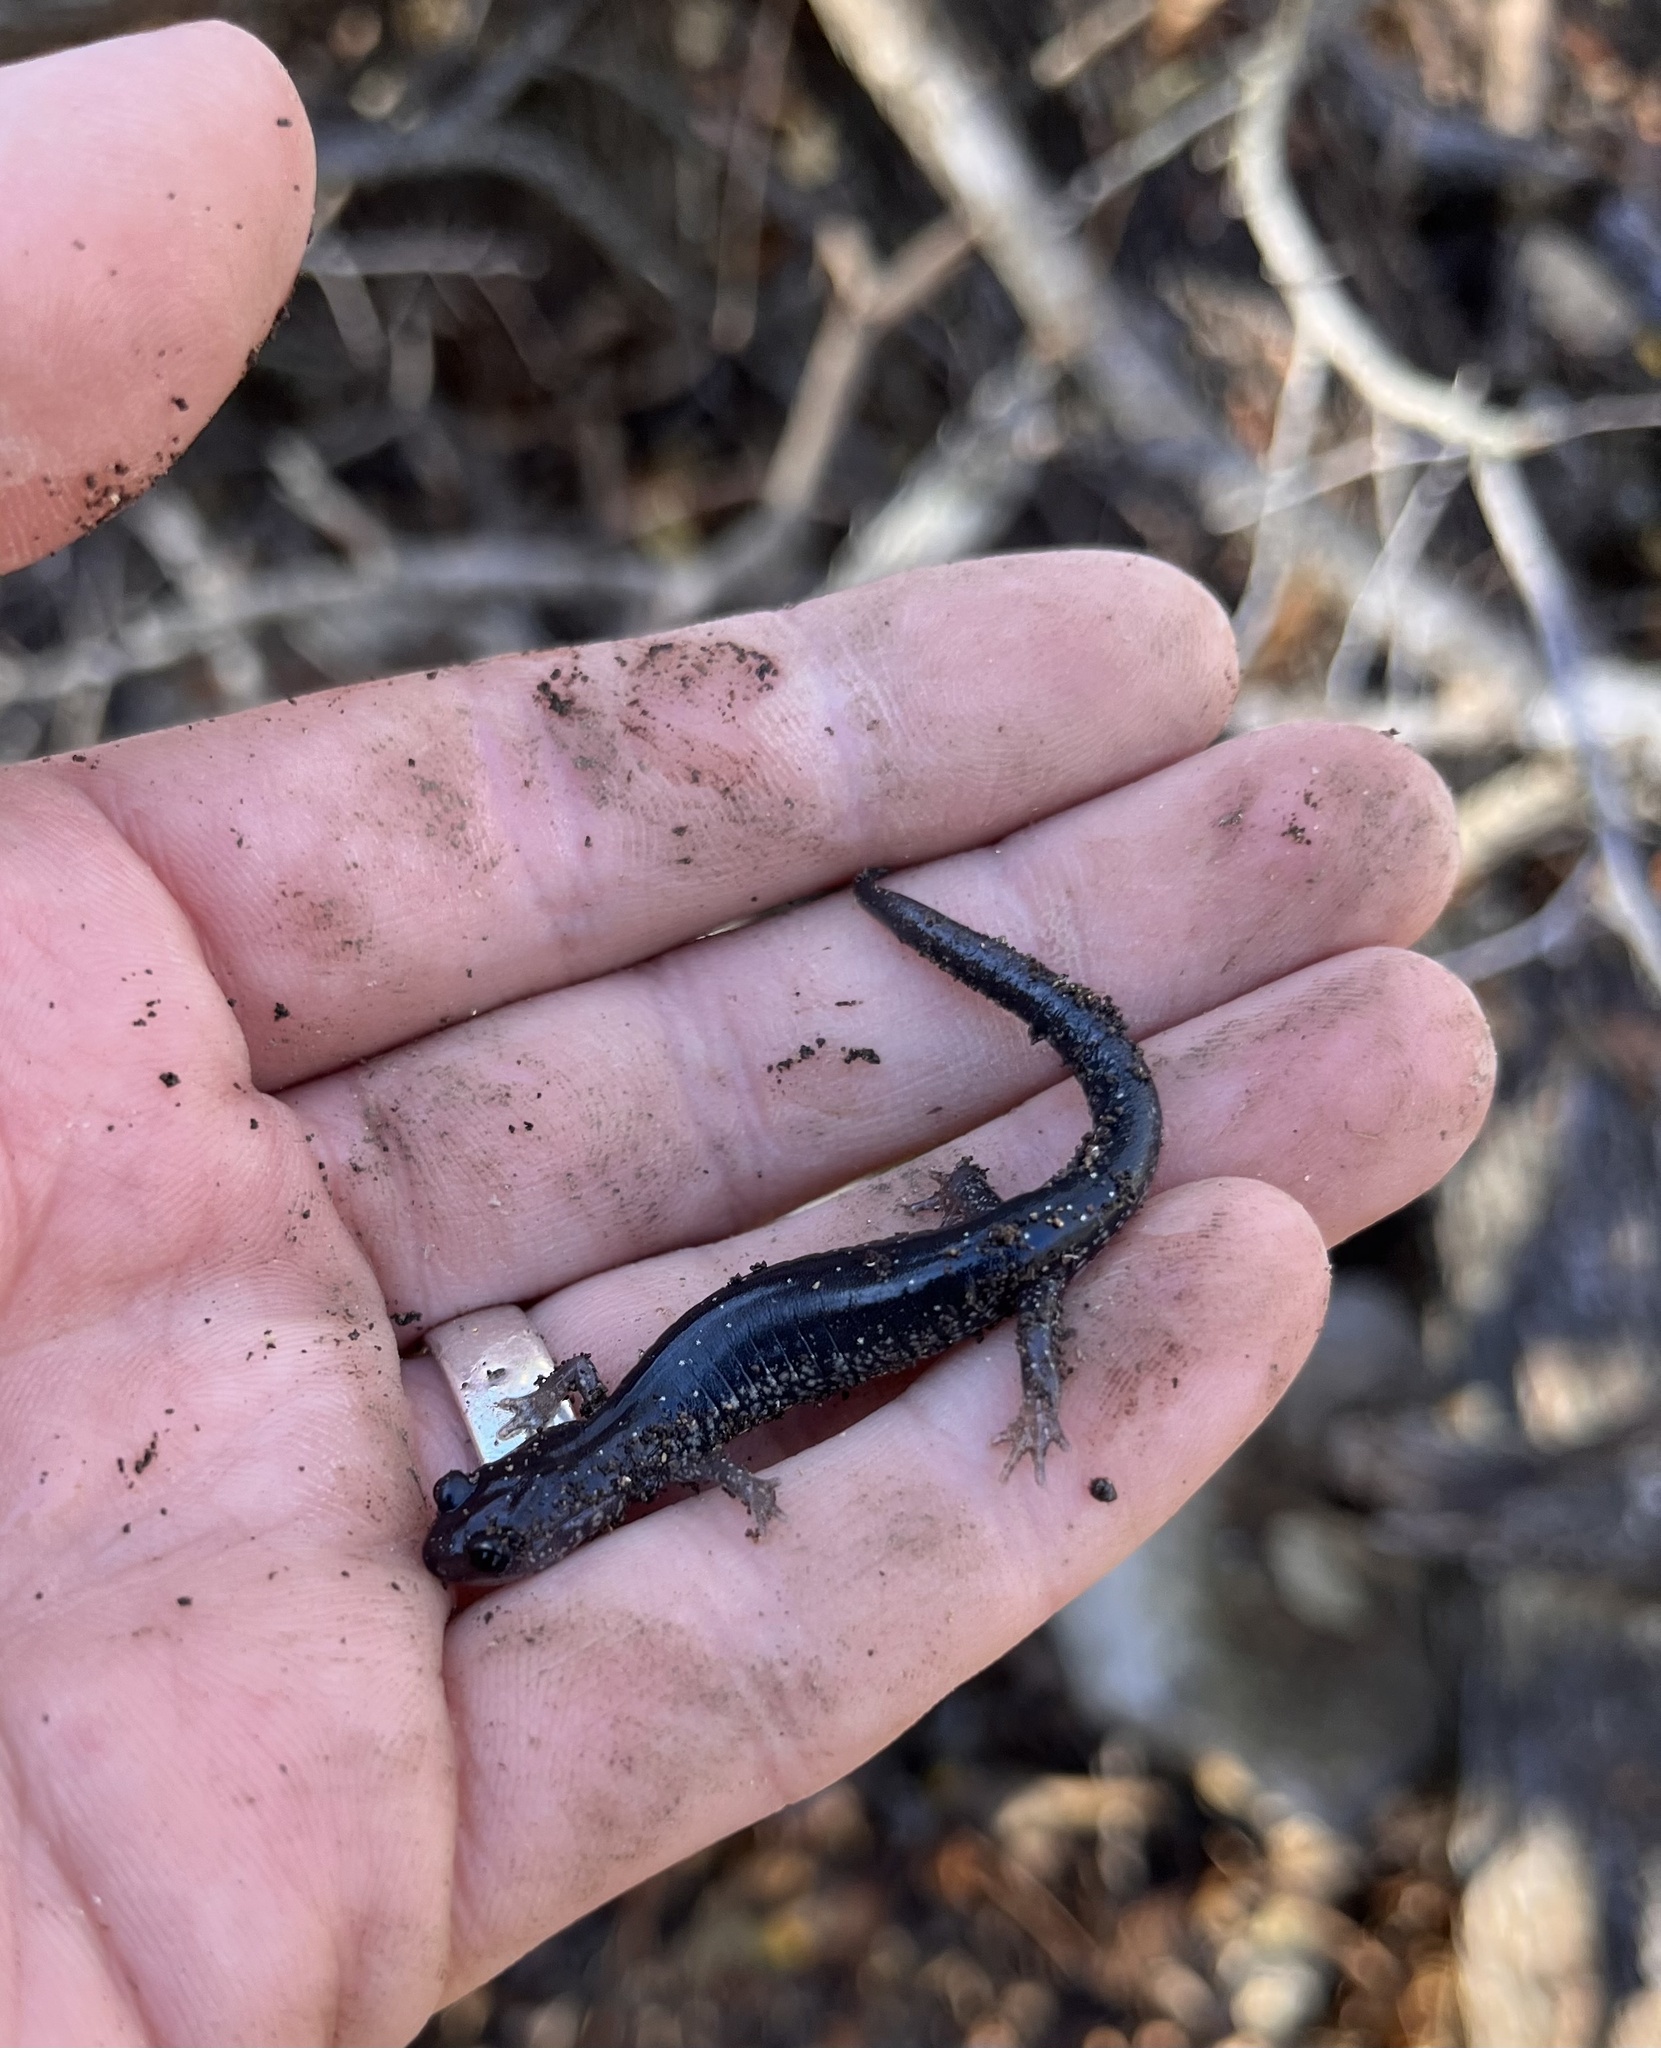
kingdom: Animalia
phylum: Chordata
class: Amphibia
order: Caudata
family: Plethodontidae
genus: Plethodon
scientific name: Plethodon albagula
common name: Western slimy salamander
